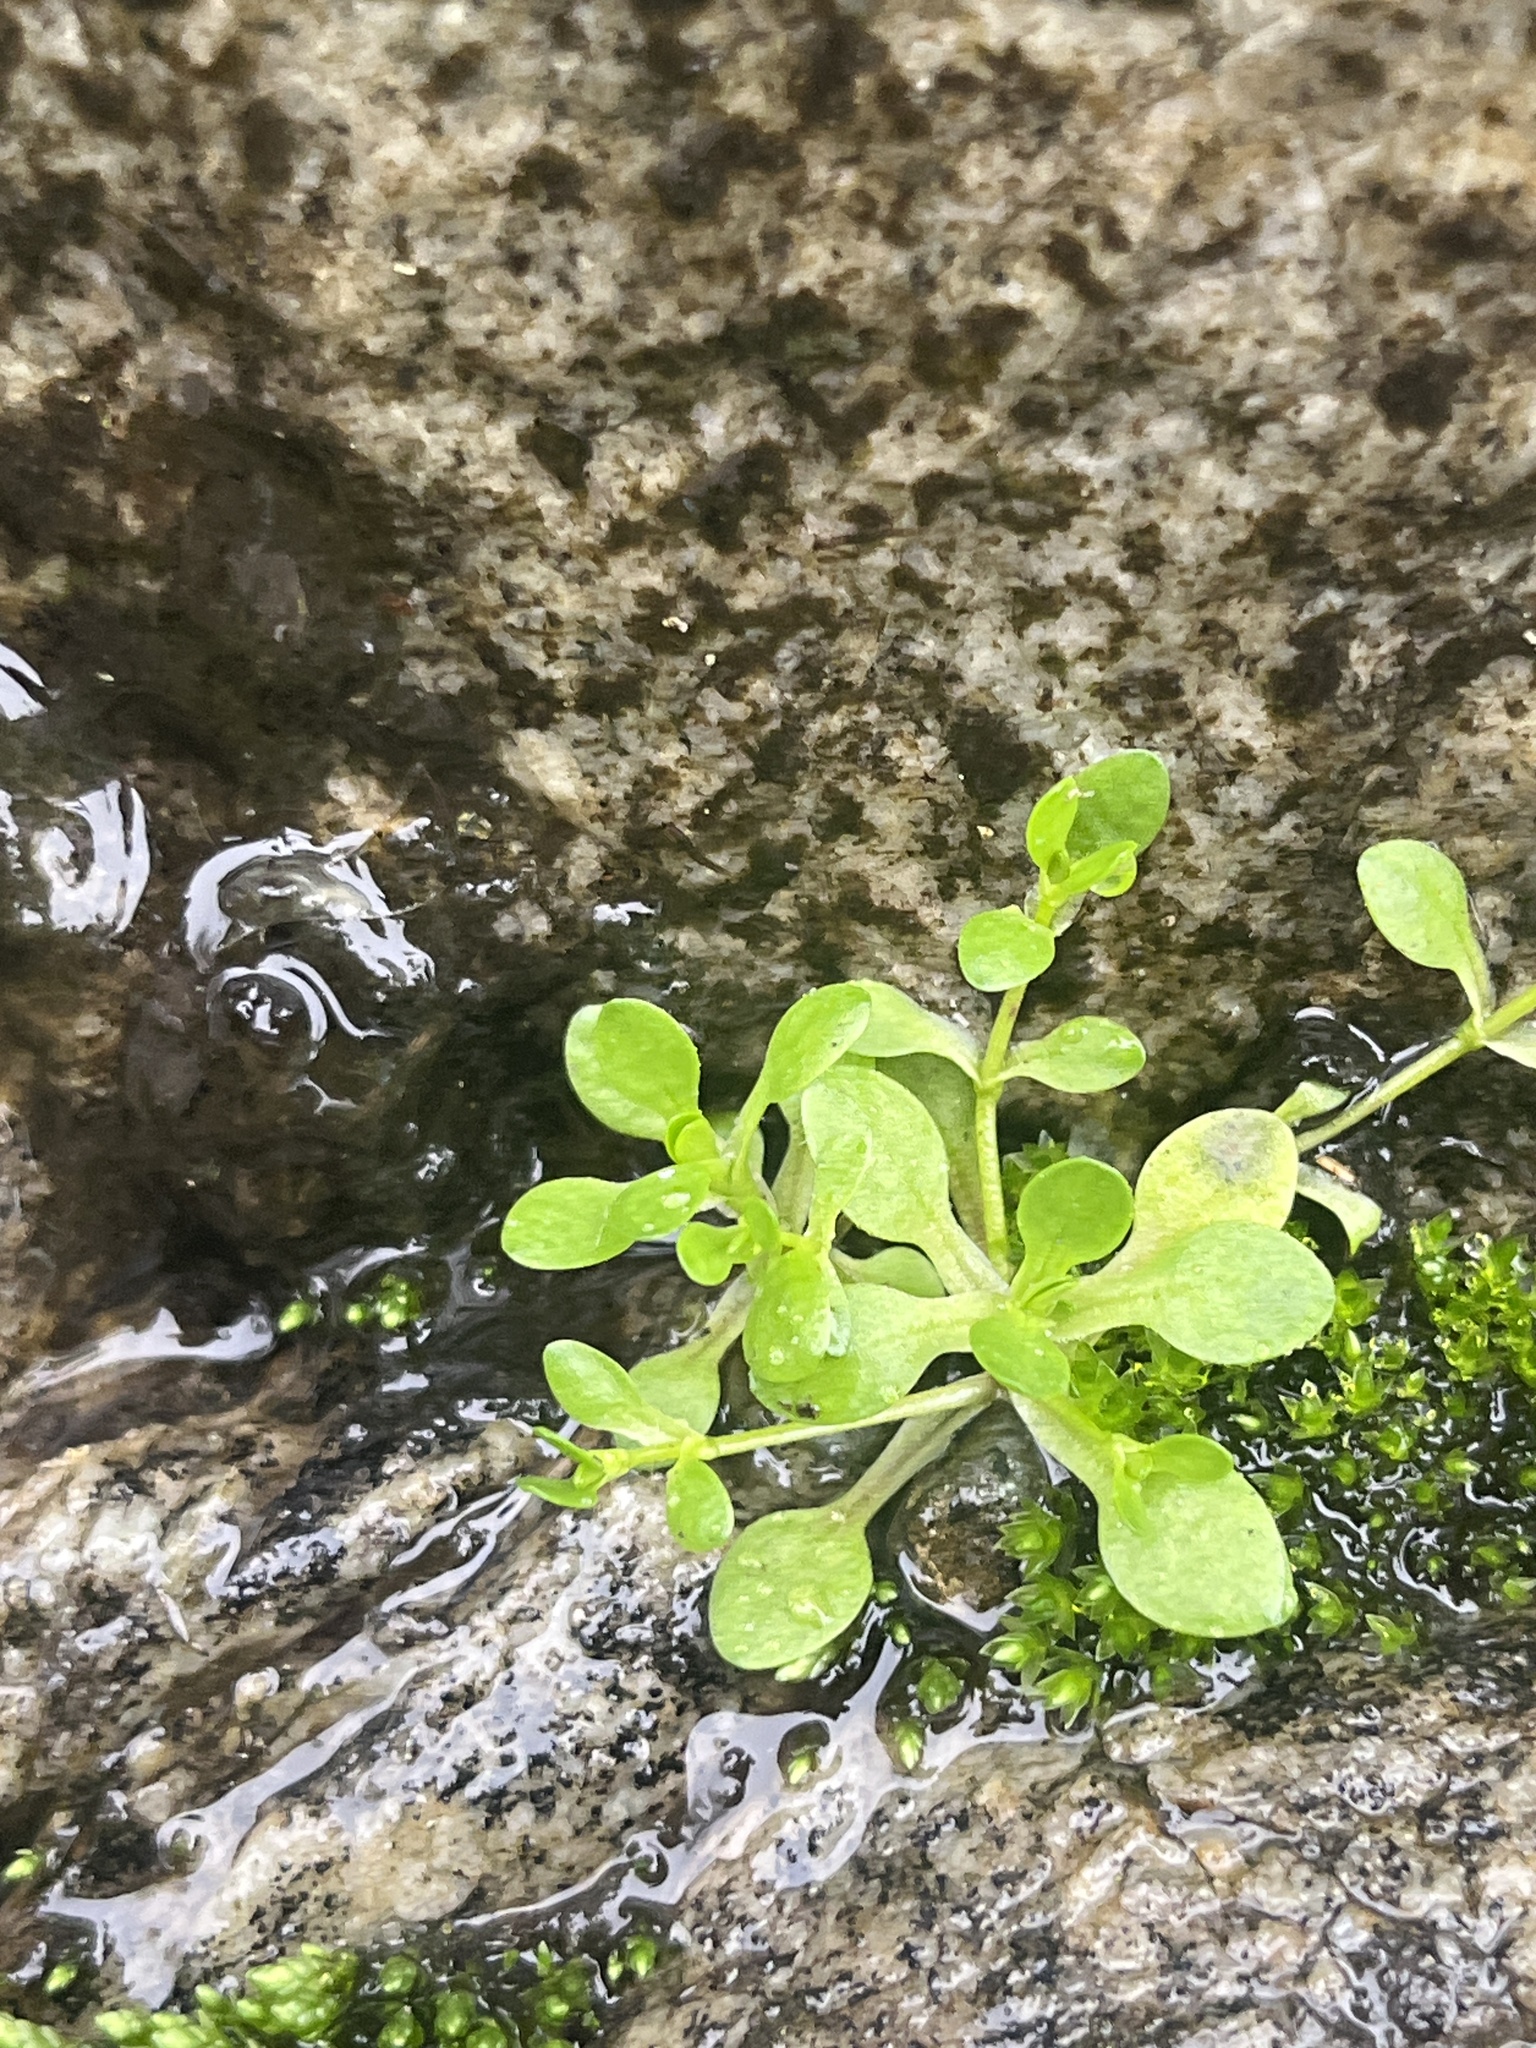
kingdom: Plantae
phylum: Tracheophyta
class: Magnoliopsida
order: Caryophyllales
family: Montiaceae
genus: Montia
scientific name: Montia fontana
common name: Blinks
